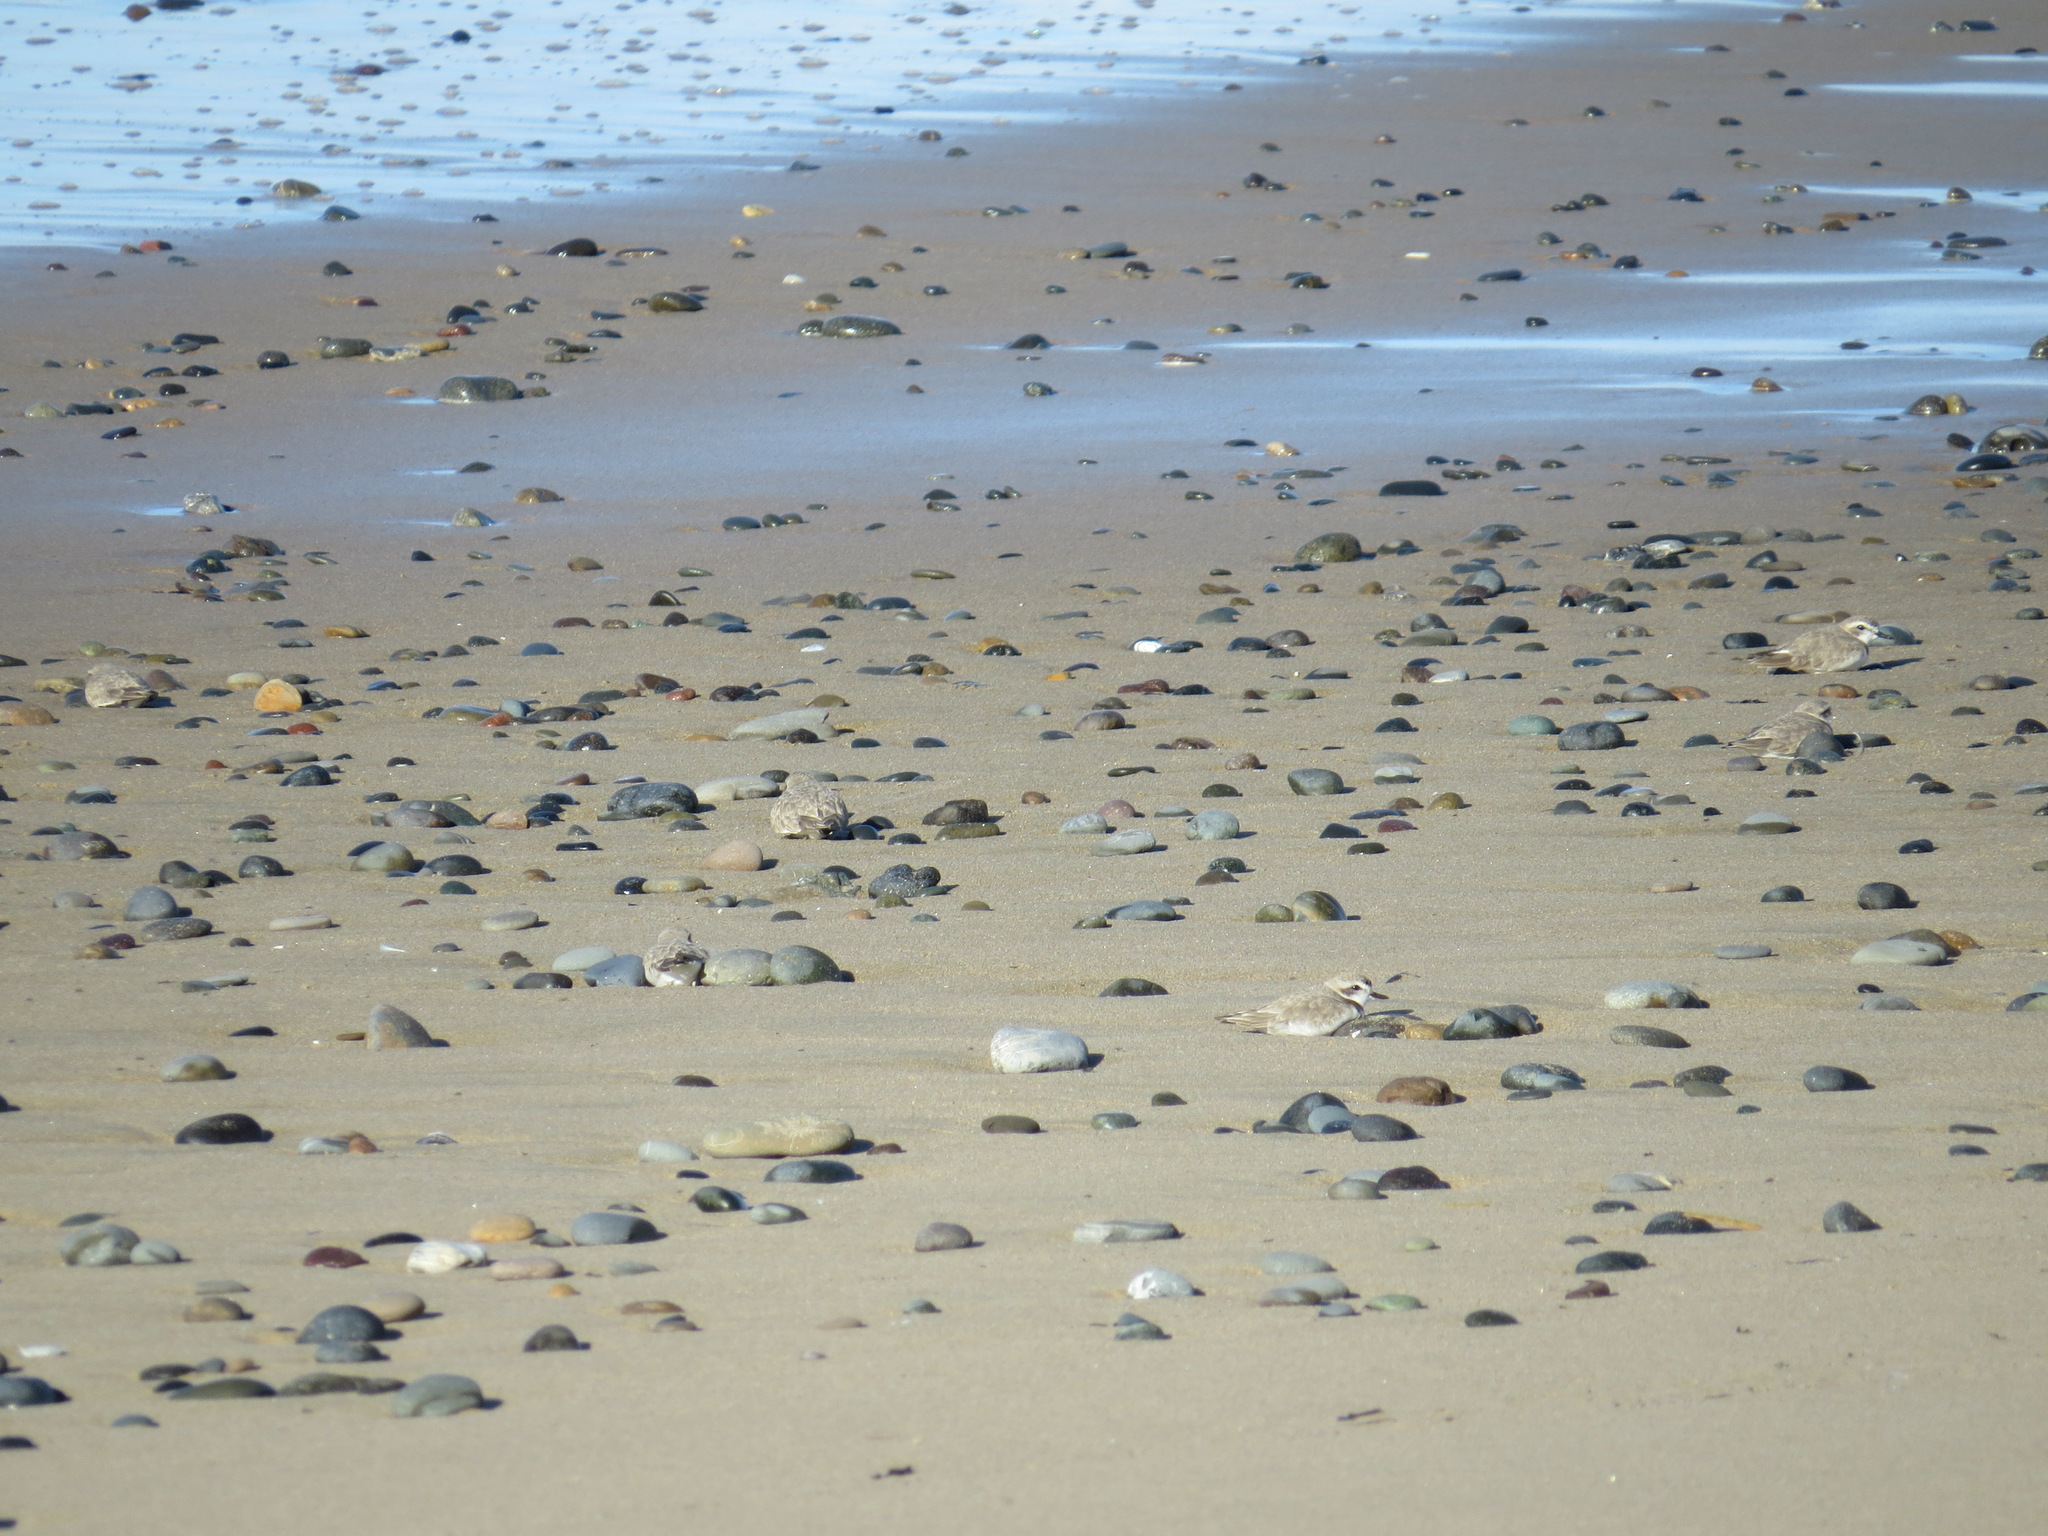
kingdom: Animalia
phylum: Chordata
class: Aves
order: Charadriiformes
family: Charadriidae
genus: Anarhynchus
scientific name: Anarhynchus
